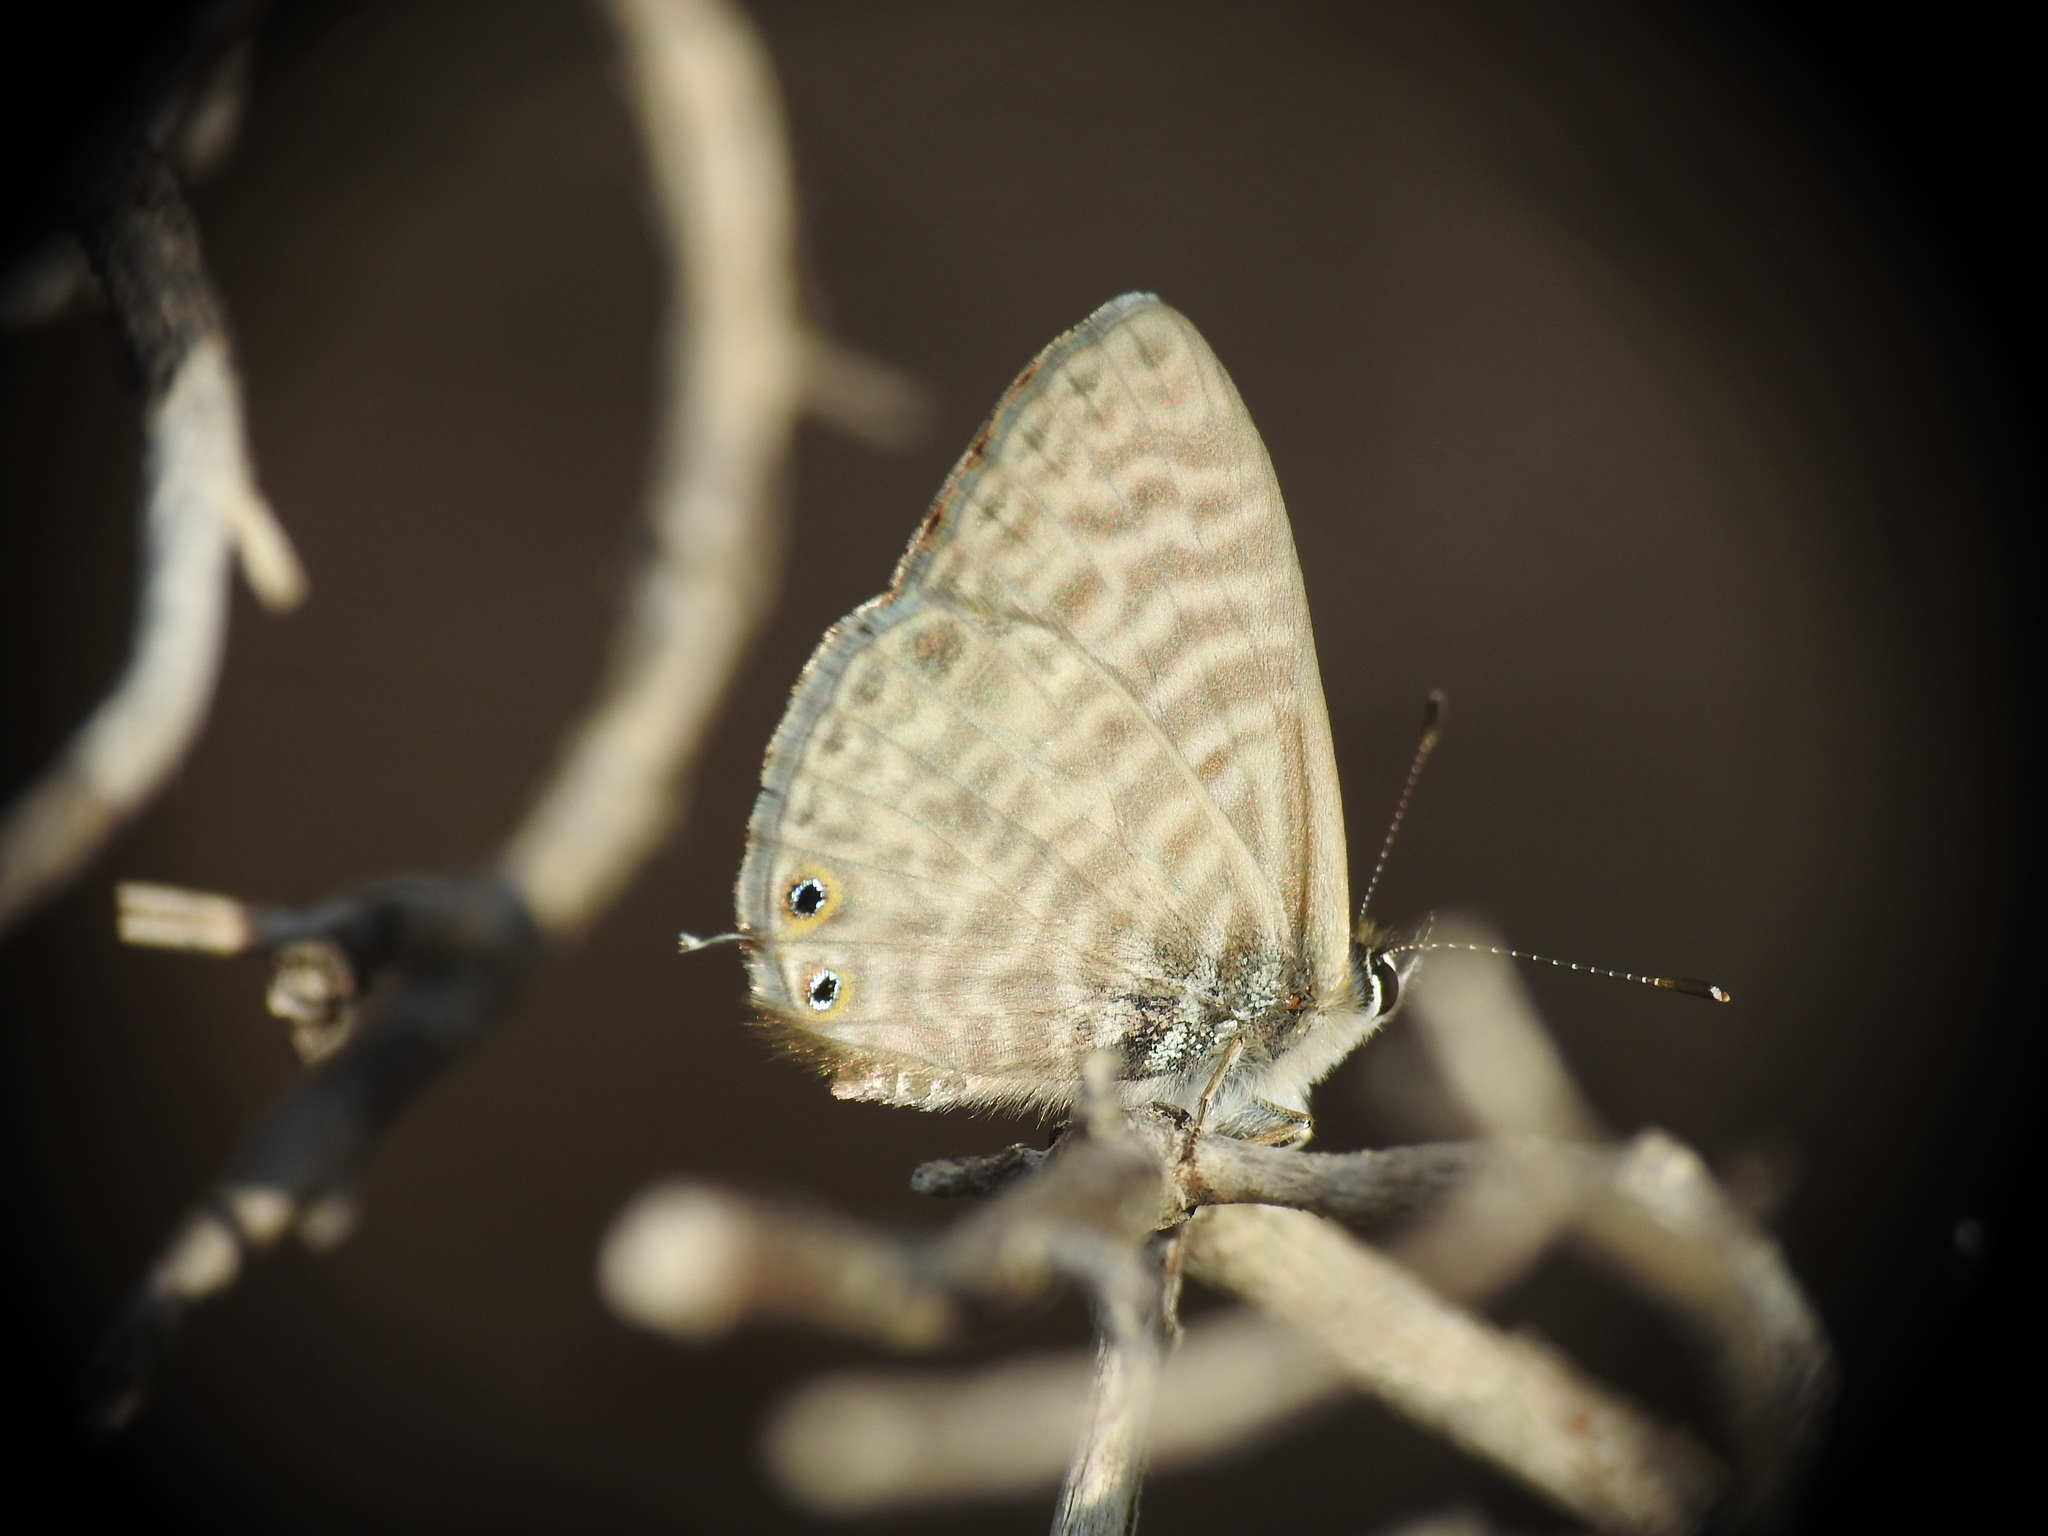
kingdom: Animalia
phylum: Arthropoda
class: Insecta
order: Lepidoptera
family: Lycaenidae
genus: Leptotes
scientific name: Leptotes pirithous
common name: Lang's short-tailed blue
